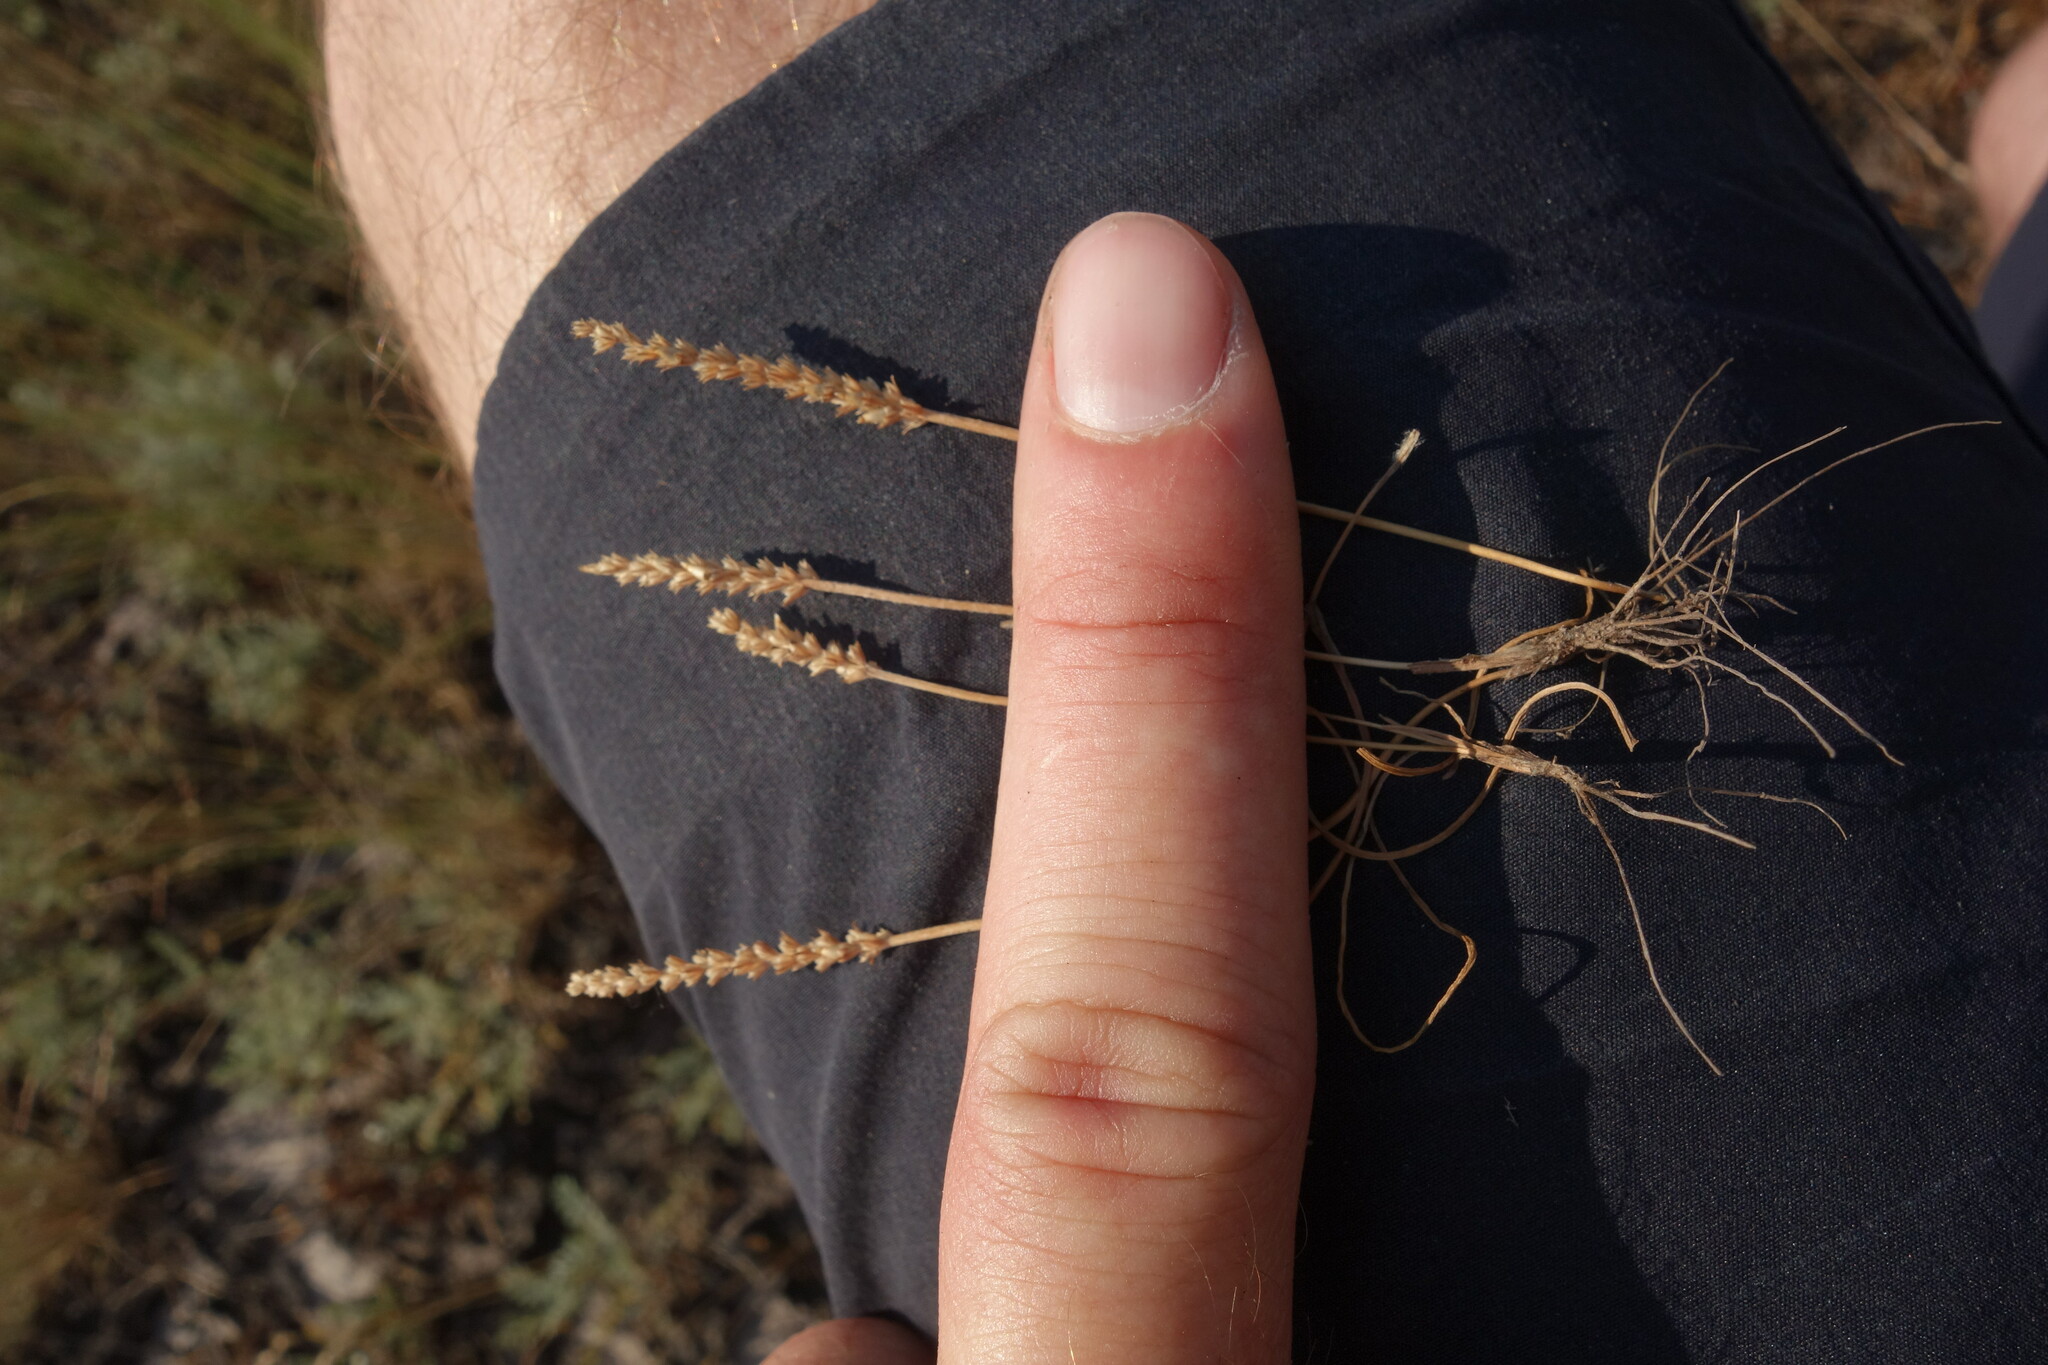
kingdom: Plantae
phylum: Tracheophyta
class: Magnoliopsida
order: Lamiales
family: Plantaginaceae
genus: Plantago
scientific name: Plantago tenuiflora
